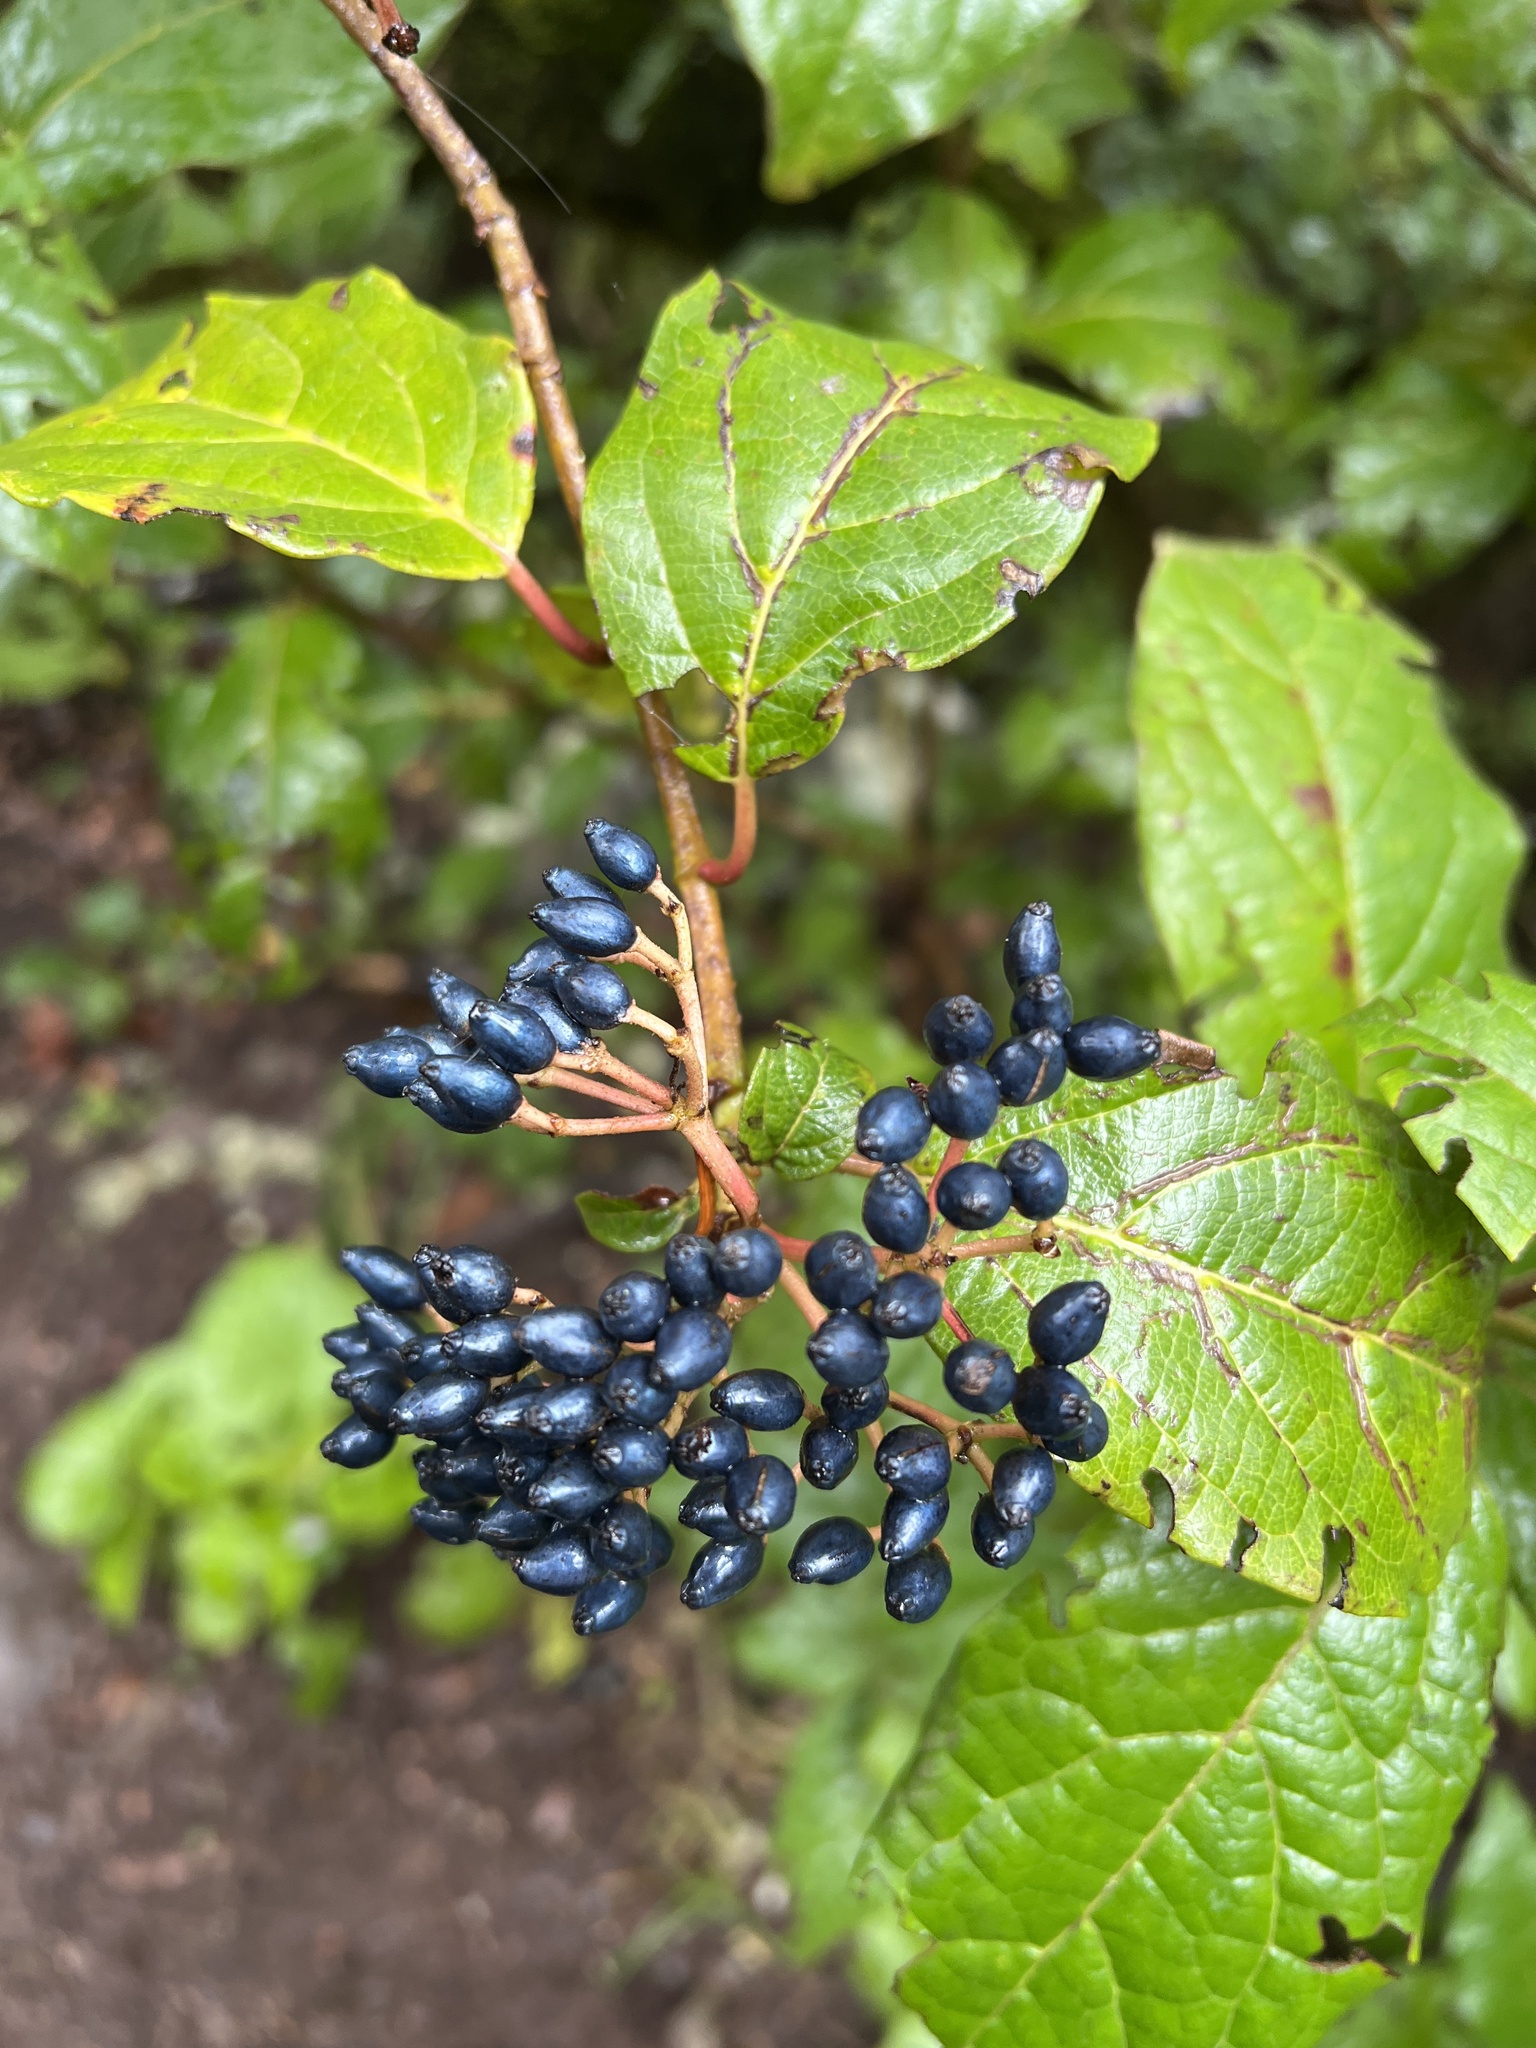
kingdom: Plantae
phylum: Tracheophyta
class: Magnoliopsida
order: Dipsacales
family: Viburnaceae
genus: Viburnum
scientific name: Viburnum rugosum
